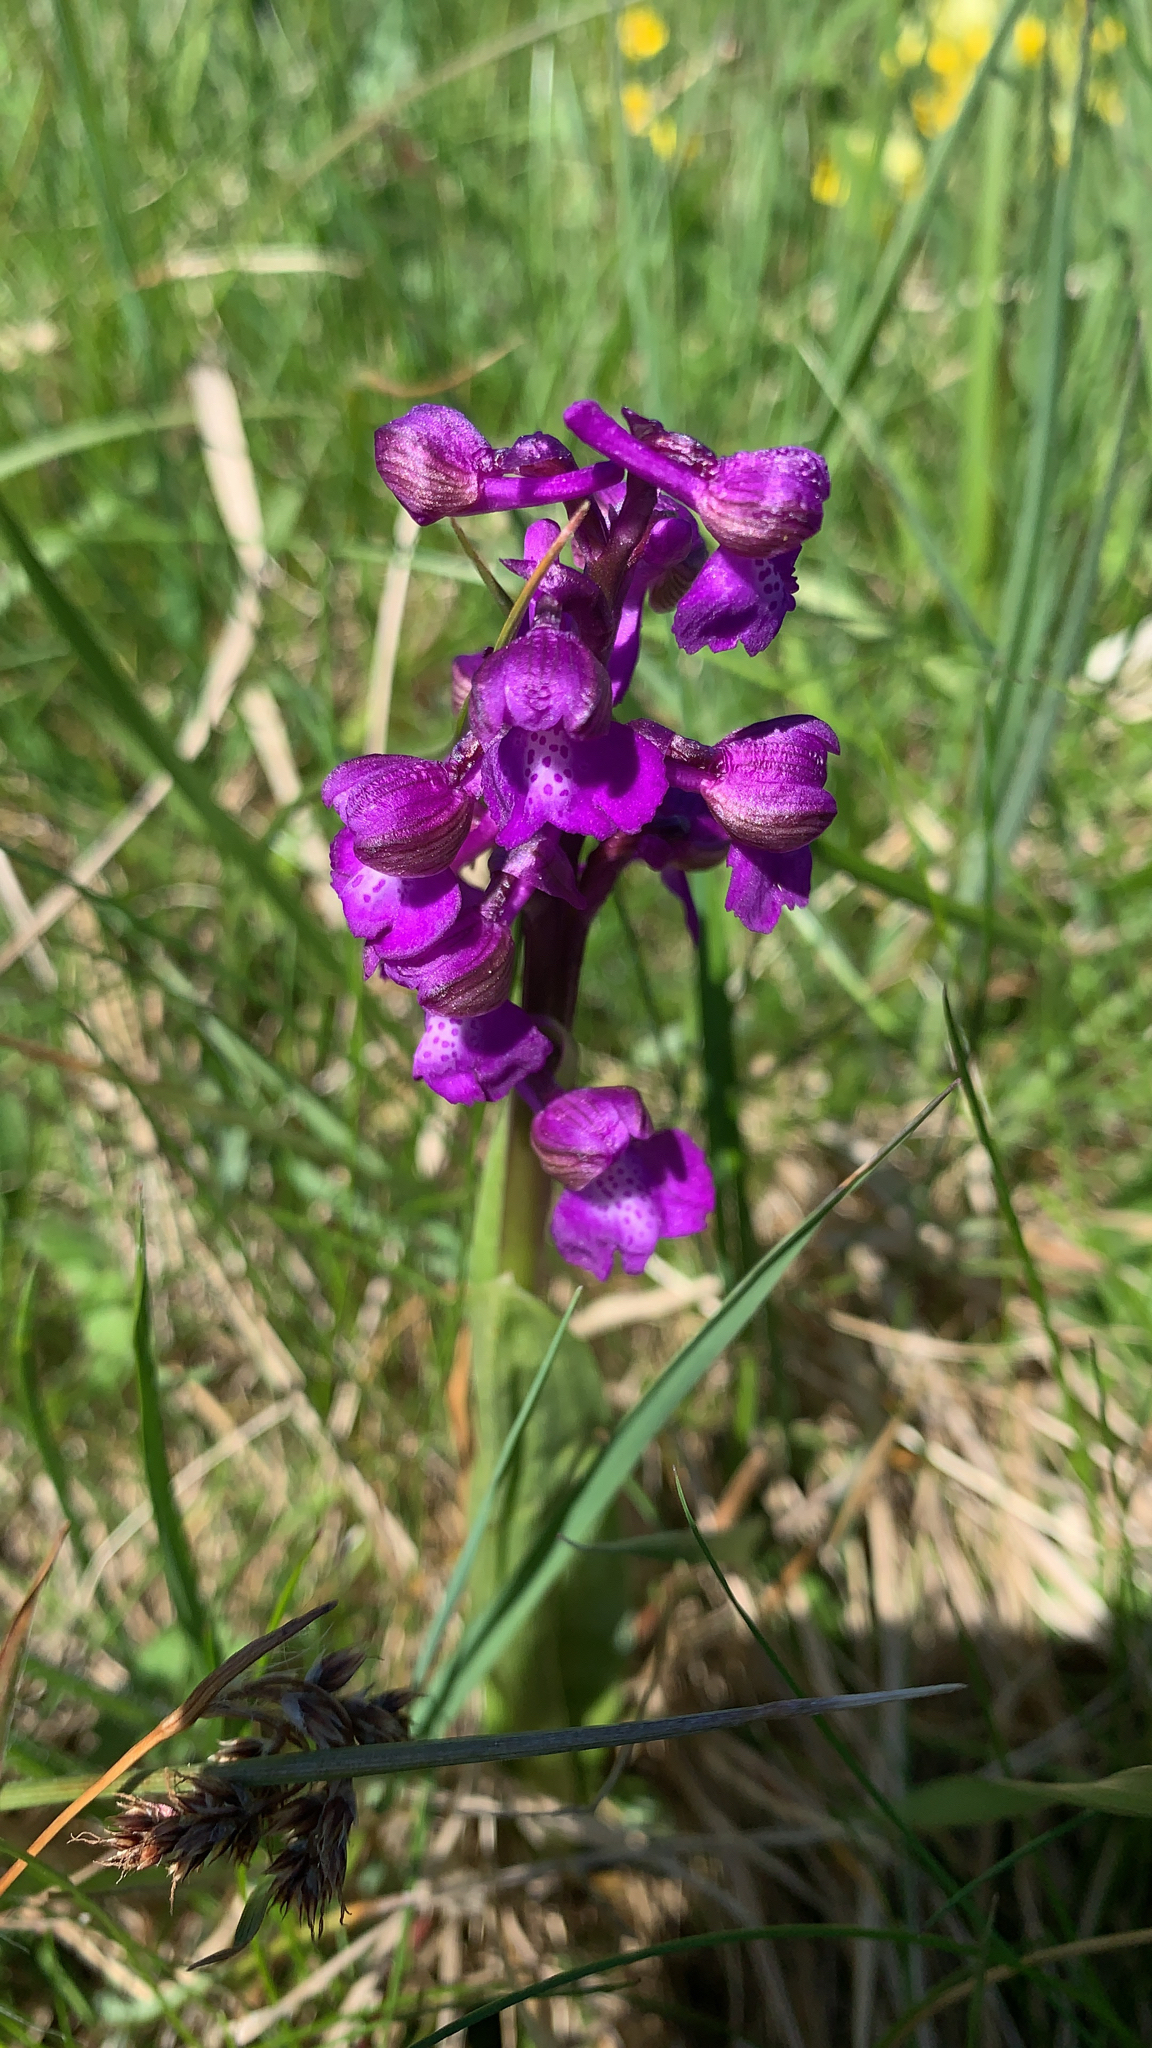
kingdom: Plantae
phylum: Tracheophyta
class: Liliopsida
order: Asparagales
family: Orchidaceae
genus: Anacamptis
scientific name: Anacamptis morio
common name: Green-winged orchid
